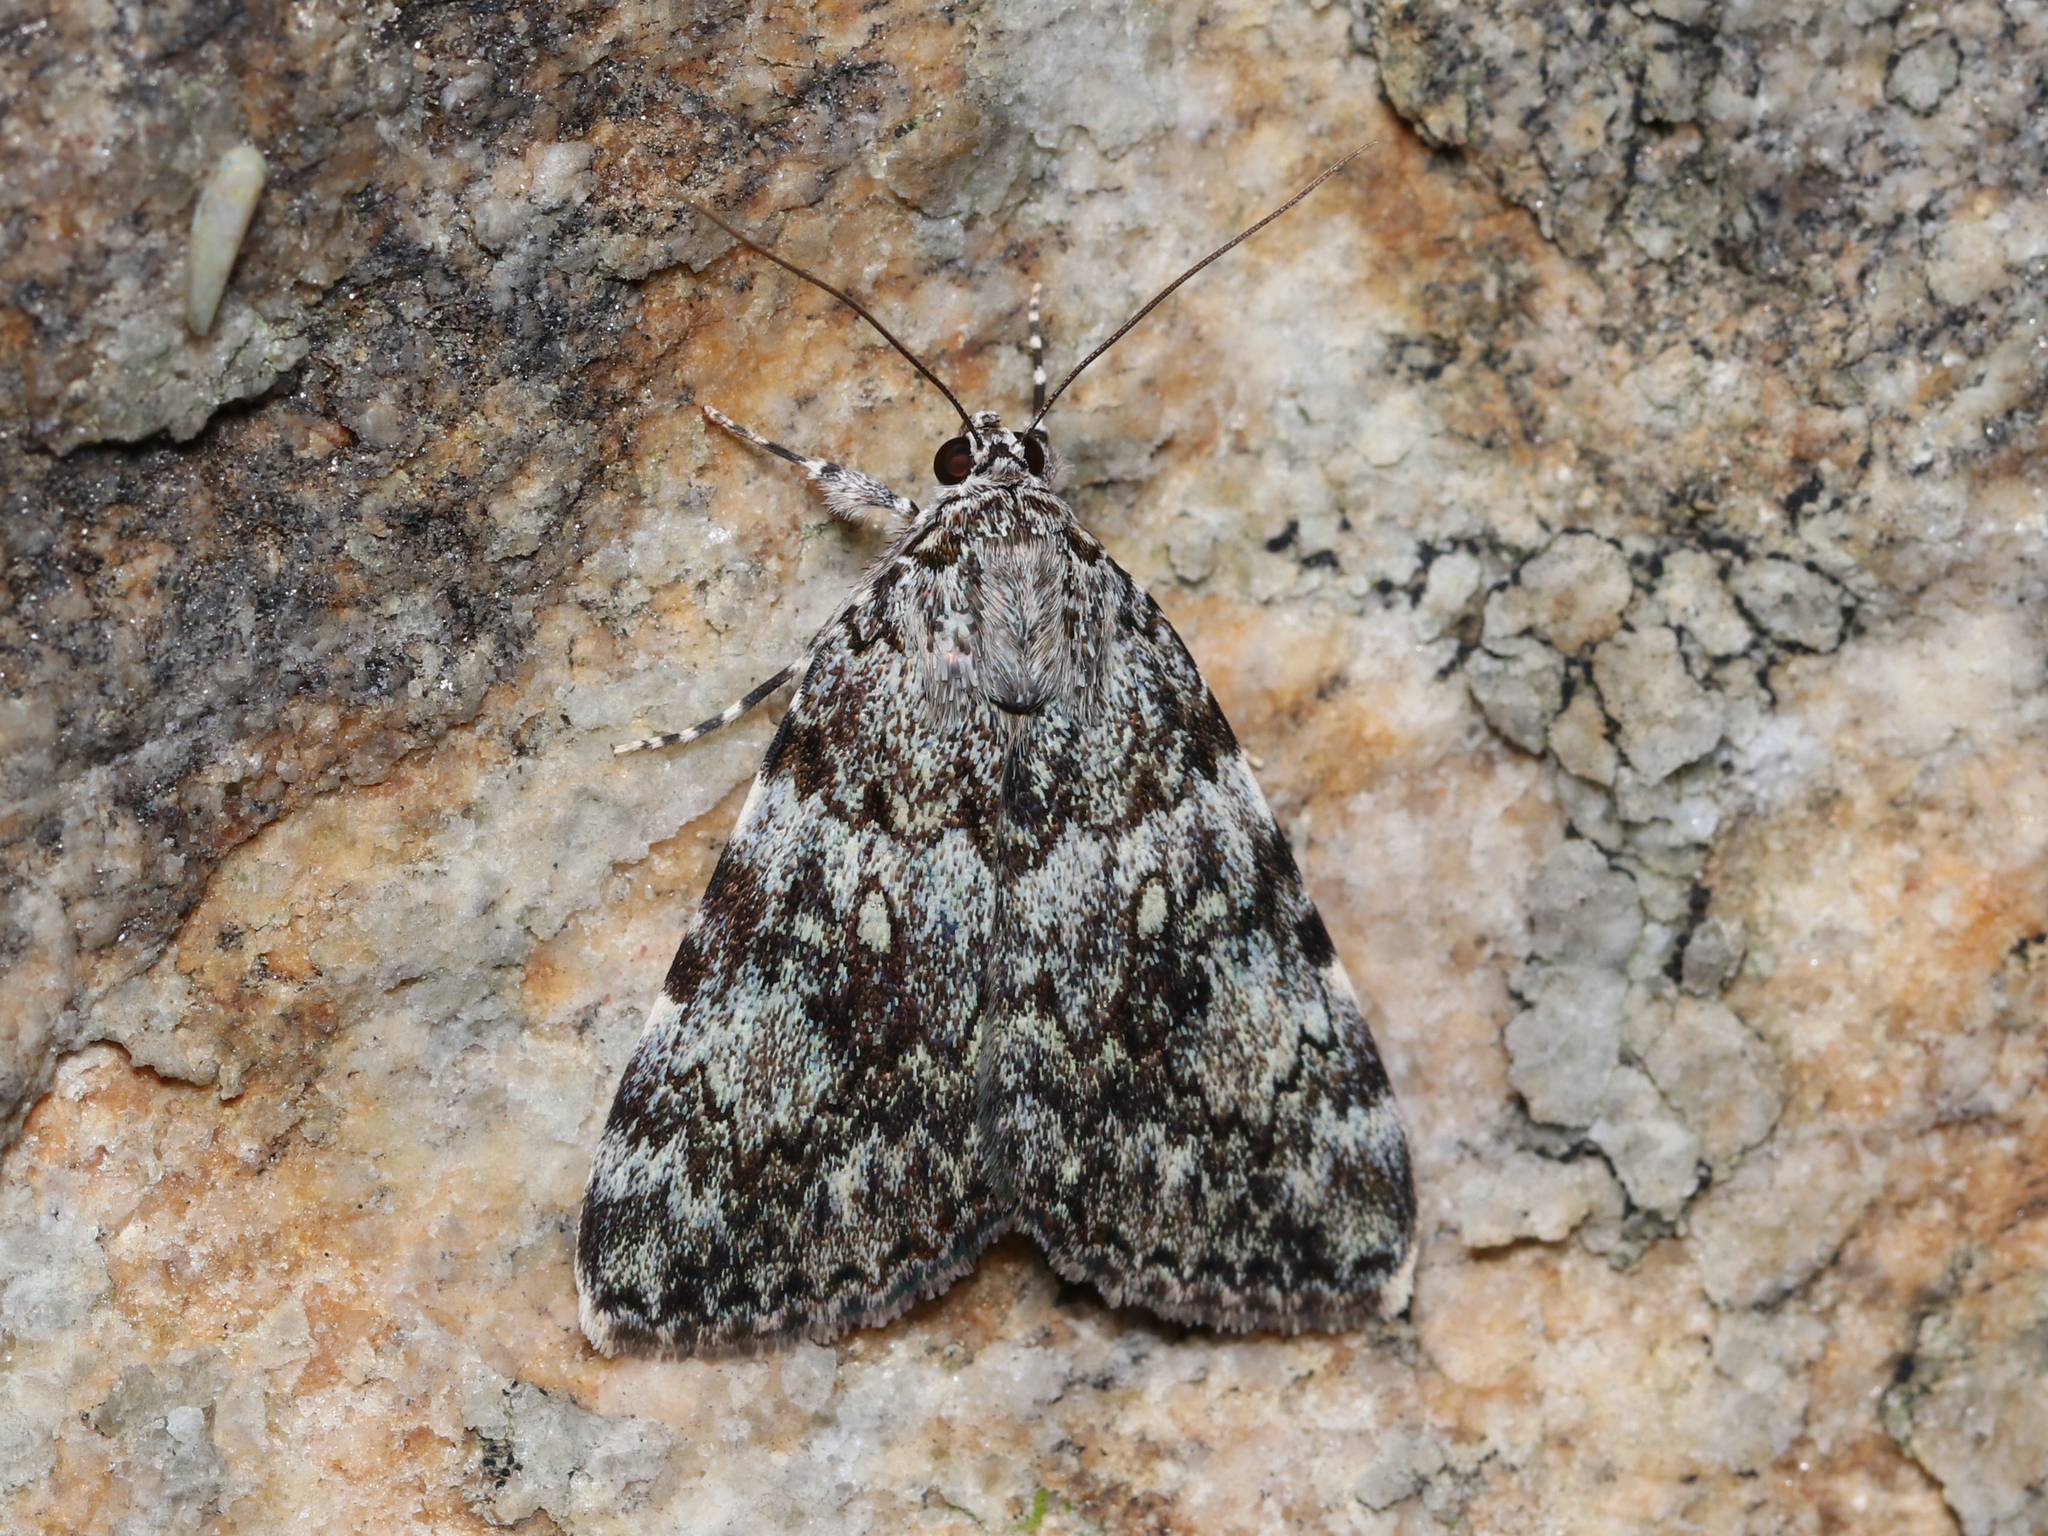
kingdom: Animalia
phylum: Arthropoda
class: Insecta
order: Lepidoptera
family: Erebidae
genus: Catocala
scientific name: Catocala lineella
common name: Little lined underwing
